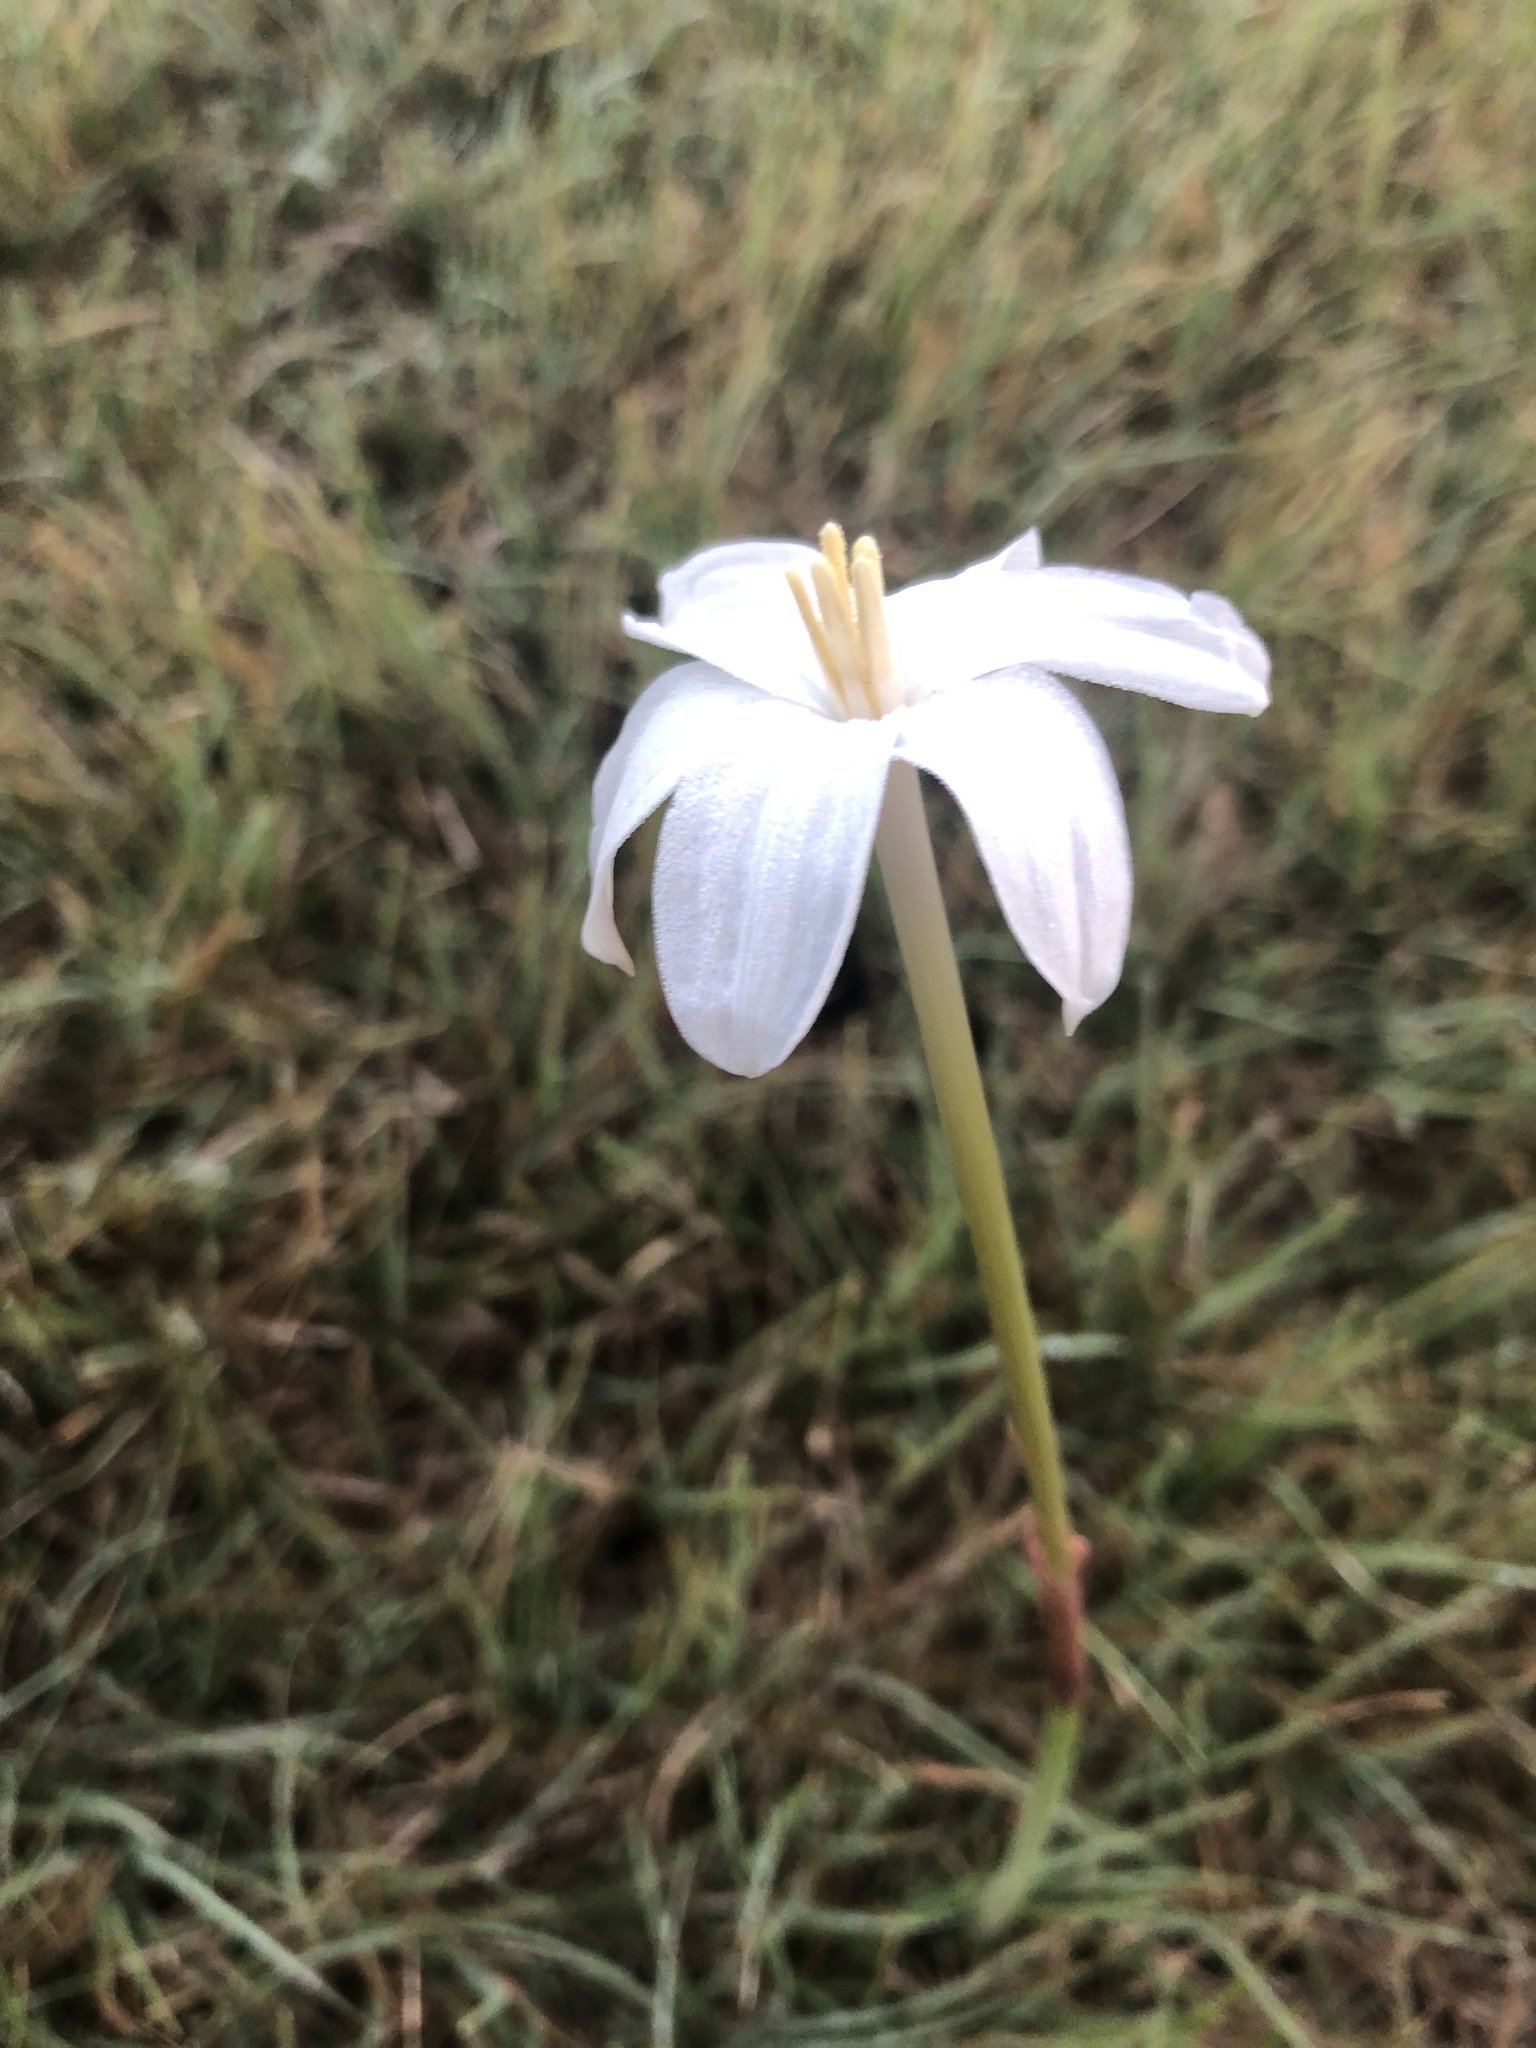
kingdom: Plantae
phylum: Tracheophyta
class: Liliopsida
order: Asparagales
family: Amaryllidaceae
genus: Zephyranthes
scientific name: Zephyranthes chlorosolen
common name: Evening rain-lily
